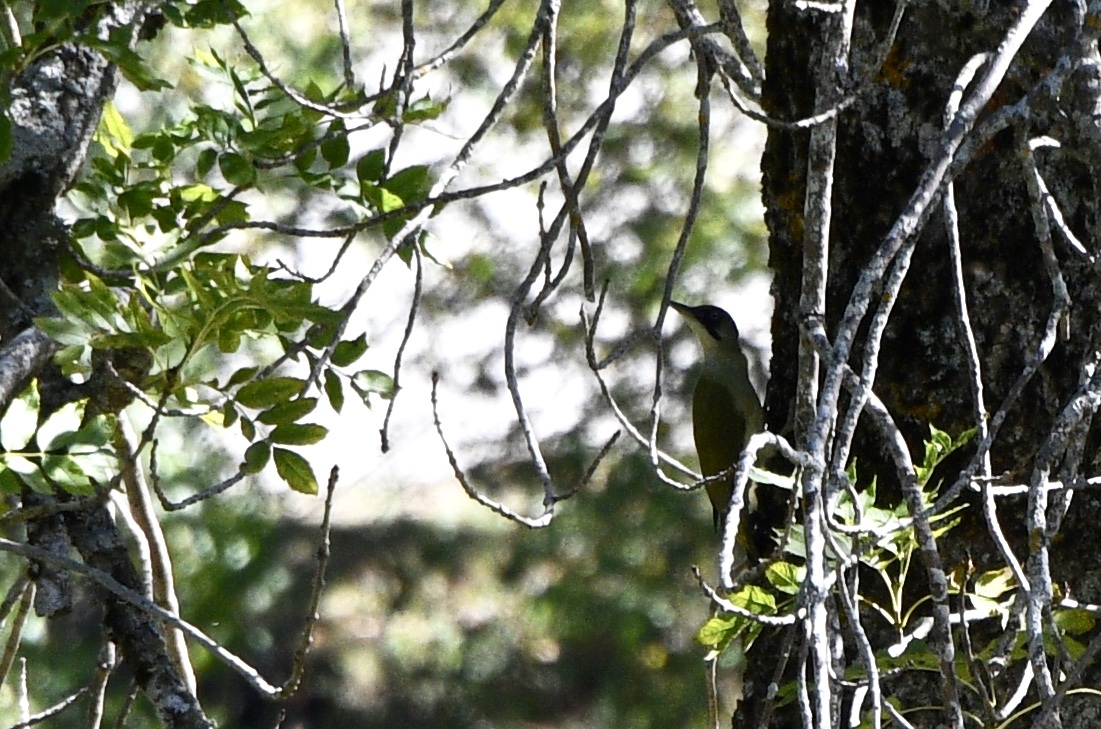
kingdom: Animalia
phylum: Chordata
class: Aves
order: Piciformes
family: Picidae
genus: Picus
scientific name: Picus viridis
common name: European green woodpecker
